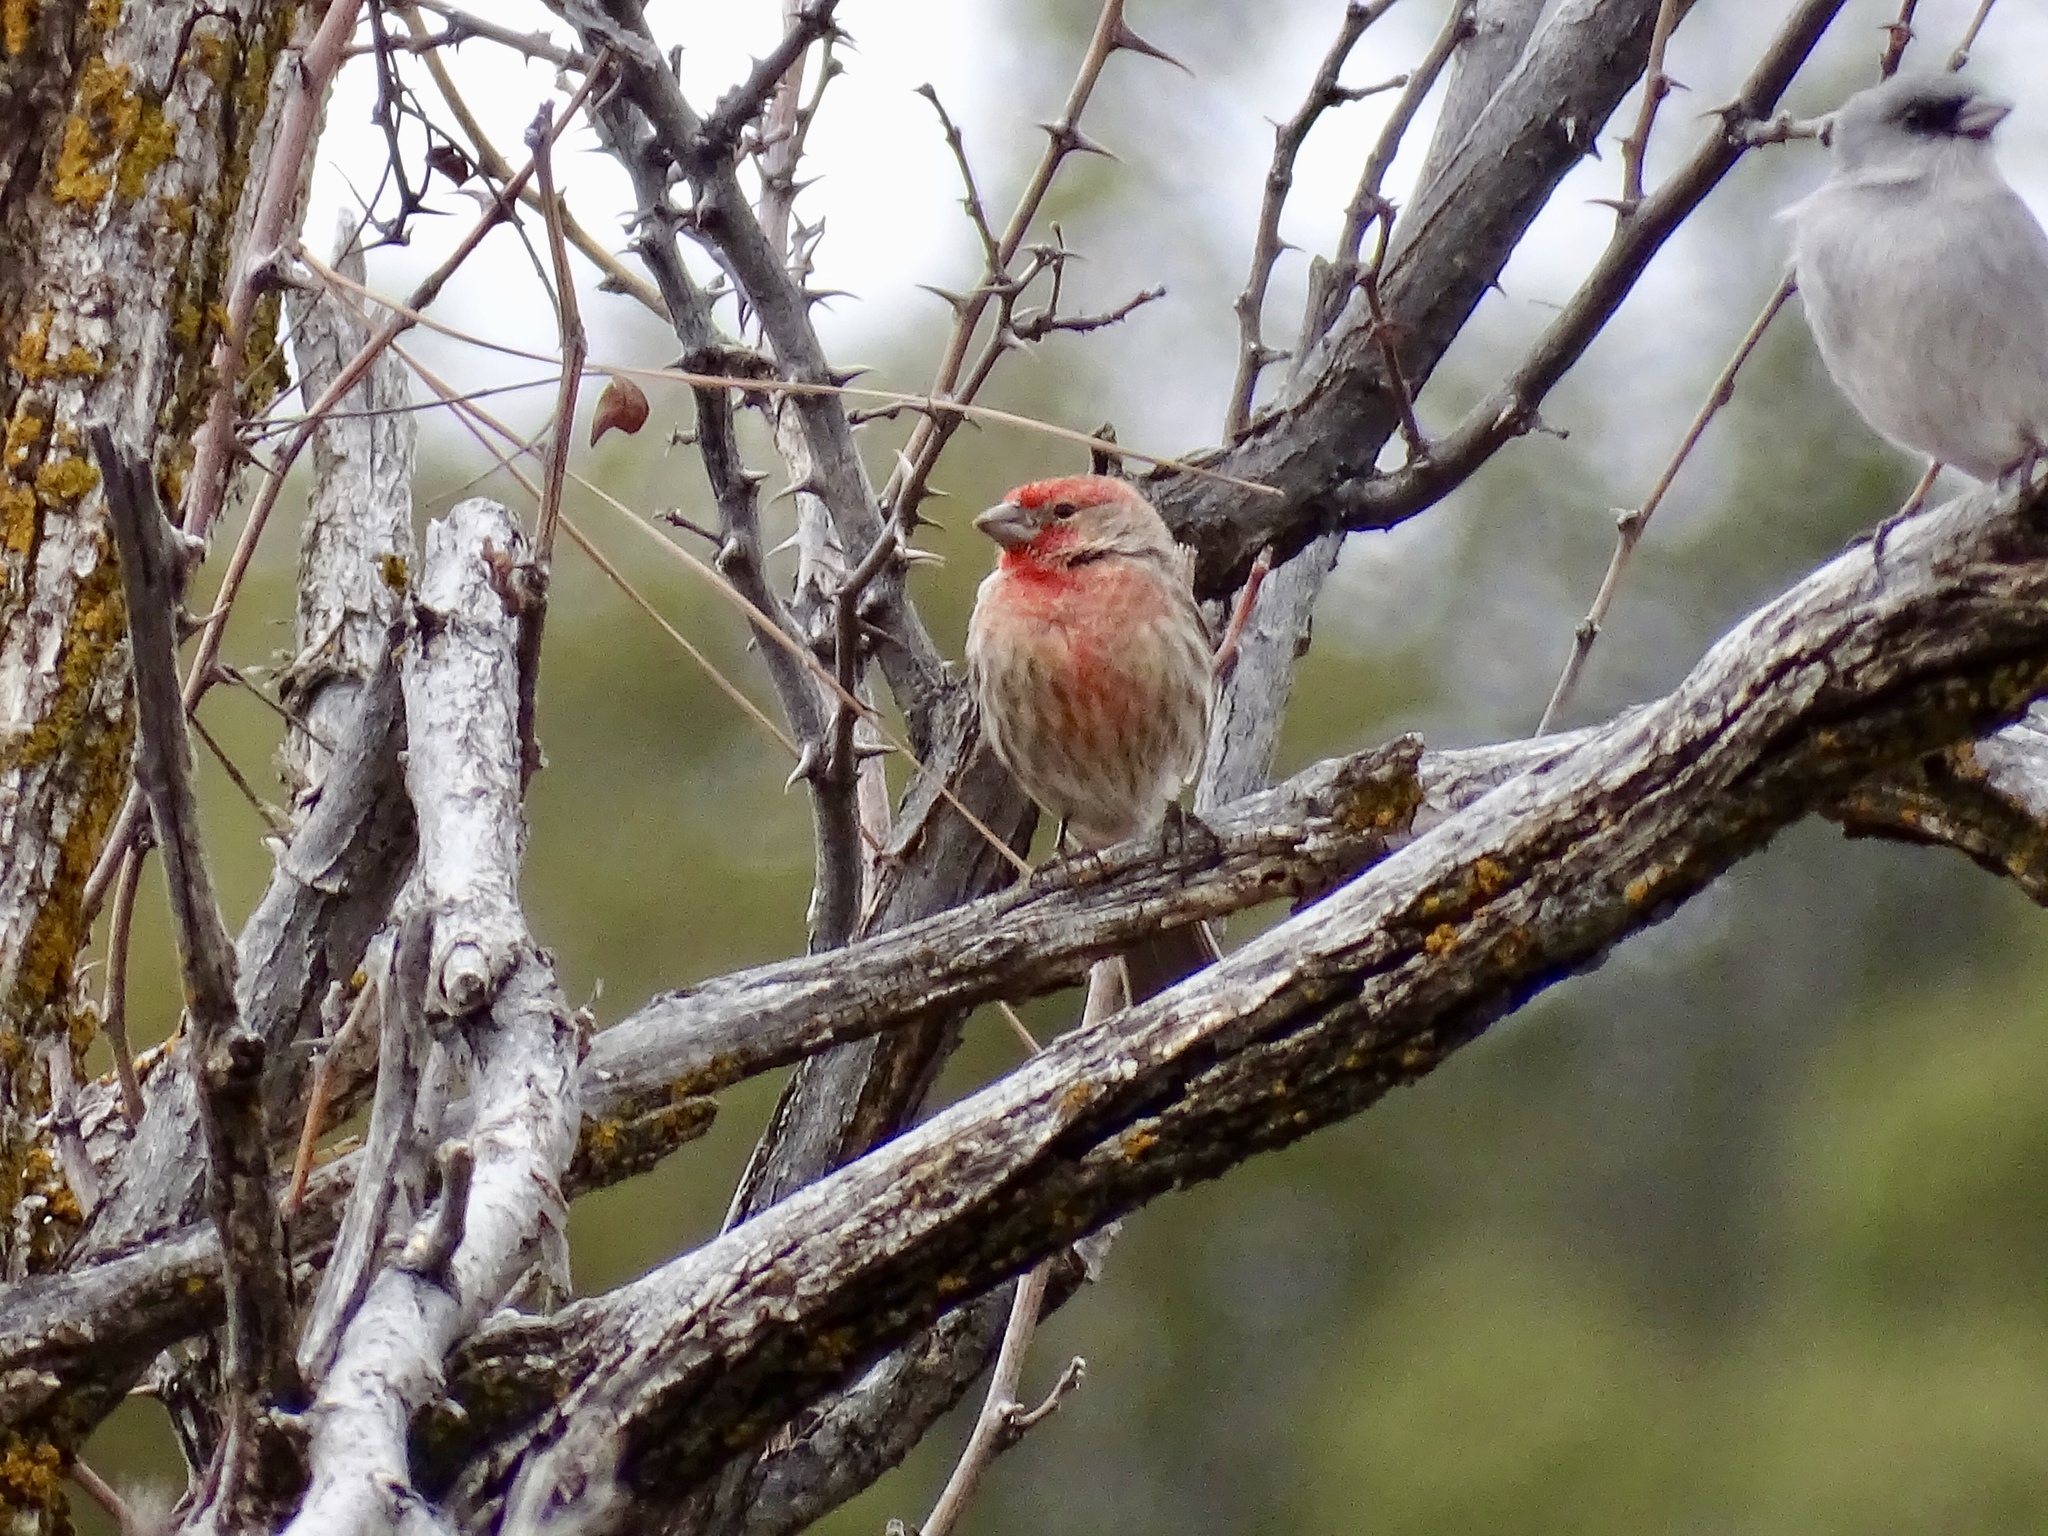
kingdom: Animalia
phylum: Chordata
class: Aves
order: Passeriformes
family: Fringillidae
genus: Haemorhous
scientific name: Haemorhous mexicanus
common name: House finch
